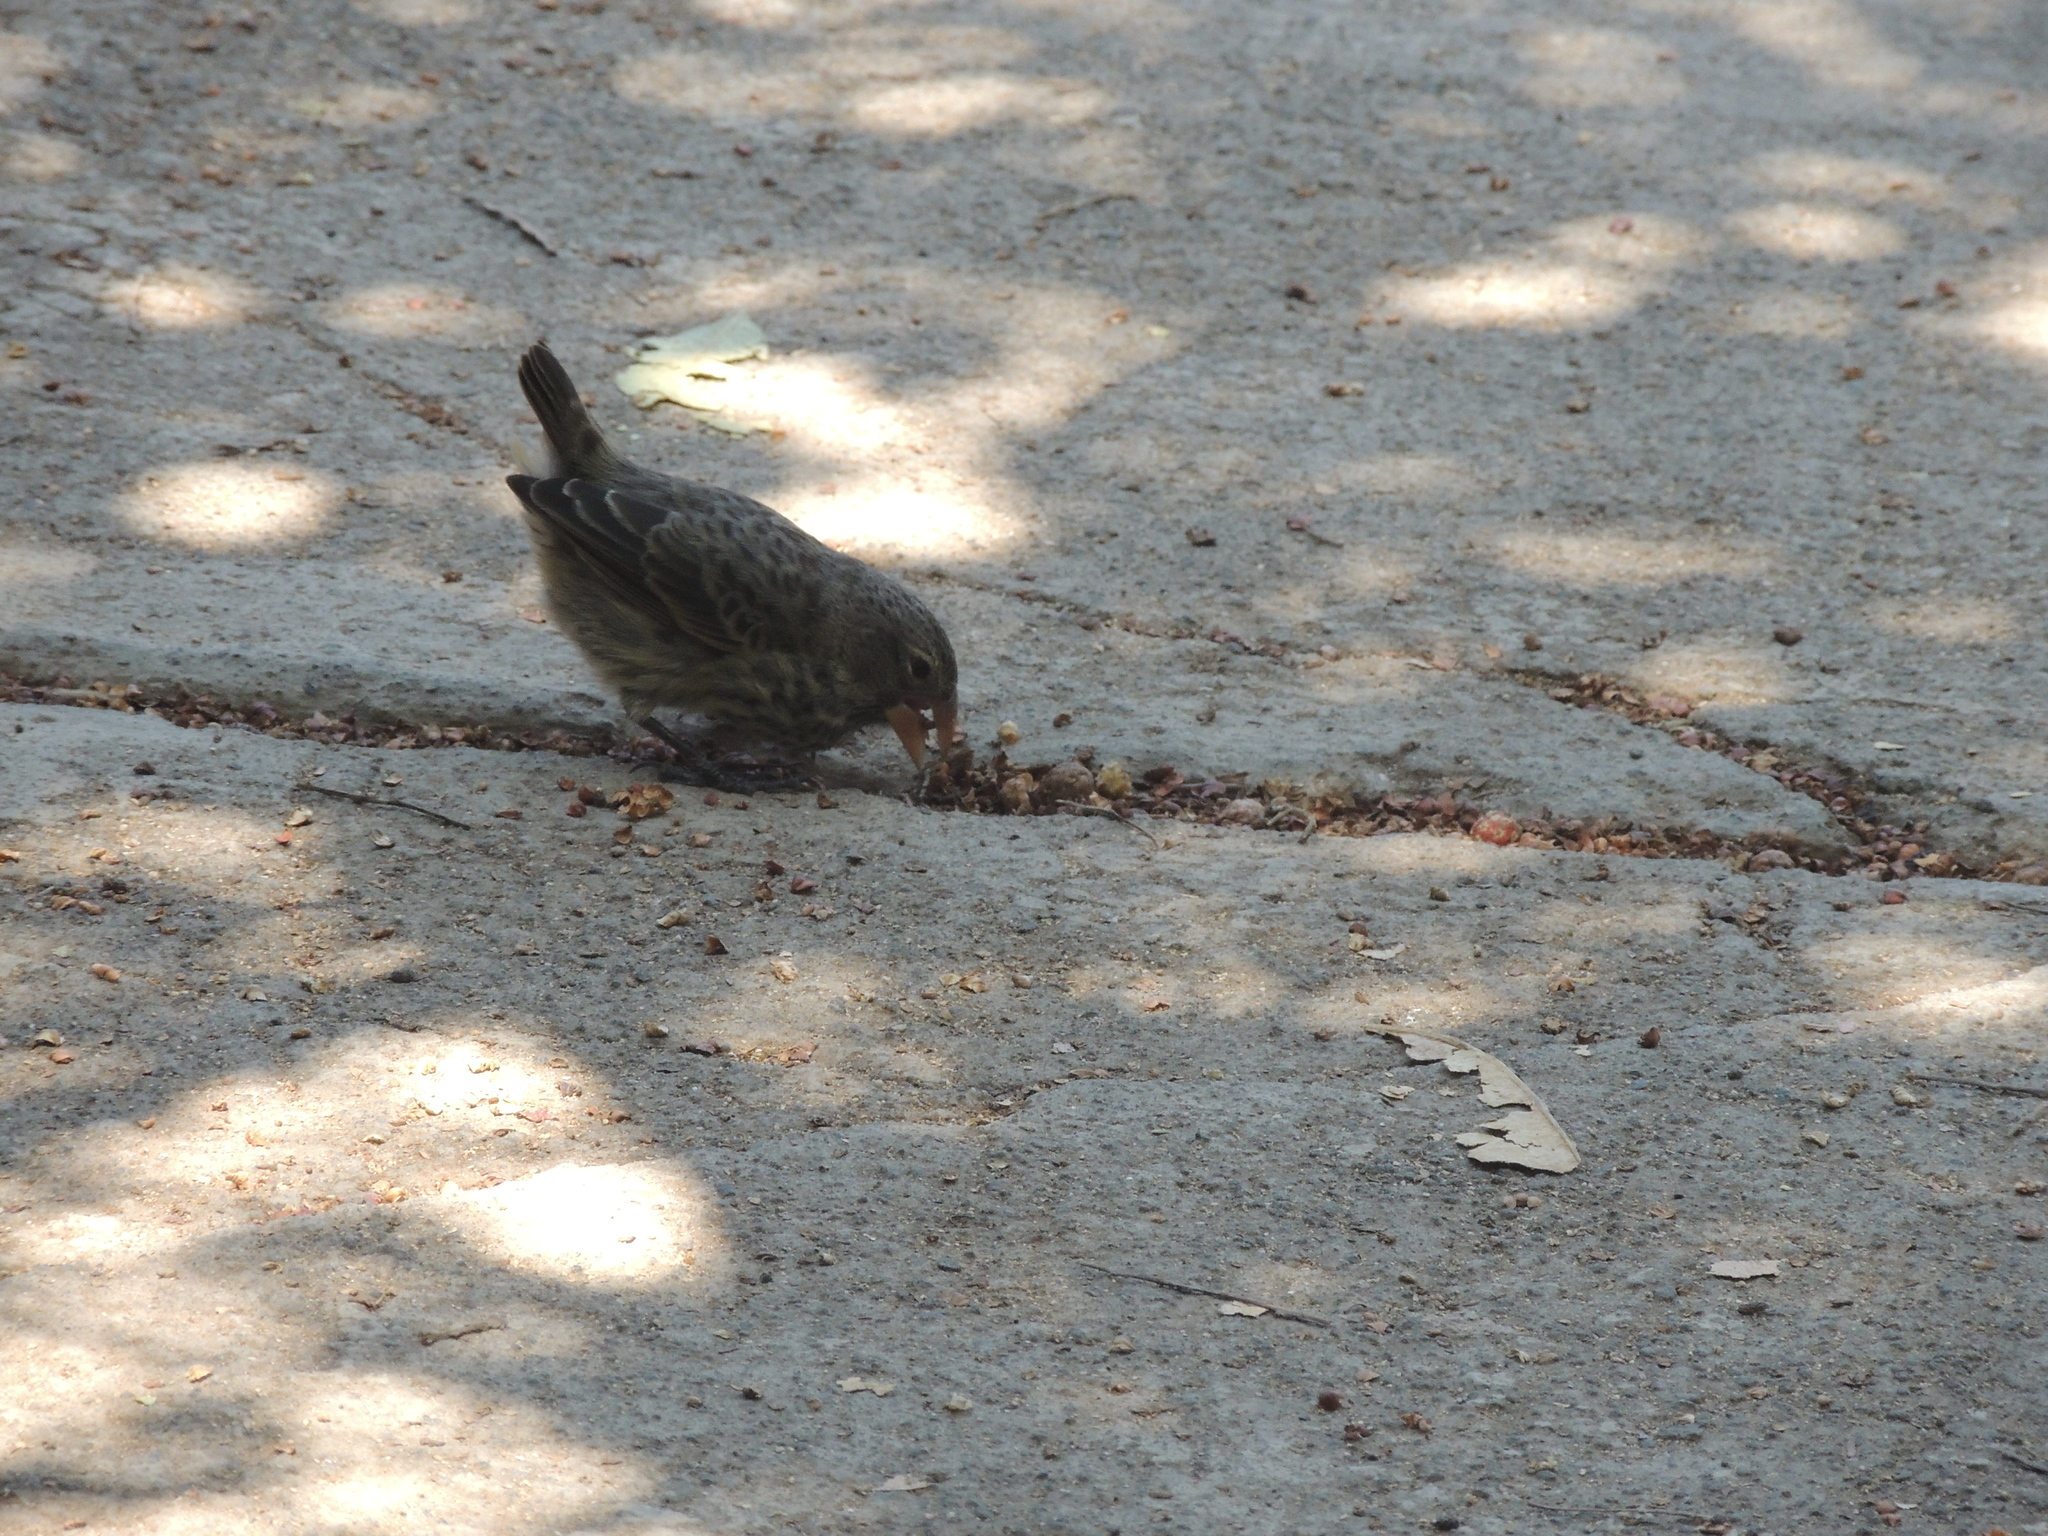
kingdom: Animalia
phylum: Chordata
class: Aves
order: Passeriformes
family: Thraupidae
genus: Geospiza
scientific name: Geospiza fuliginosa
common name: Small ground finch
